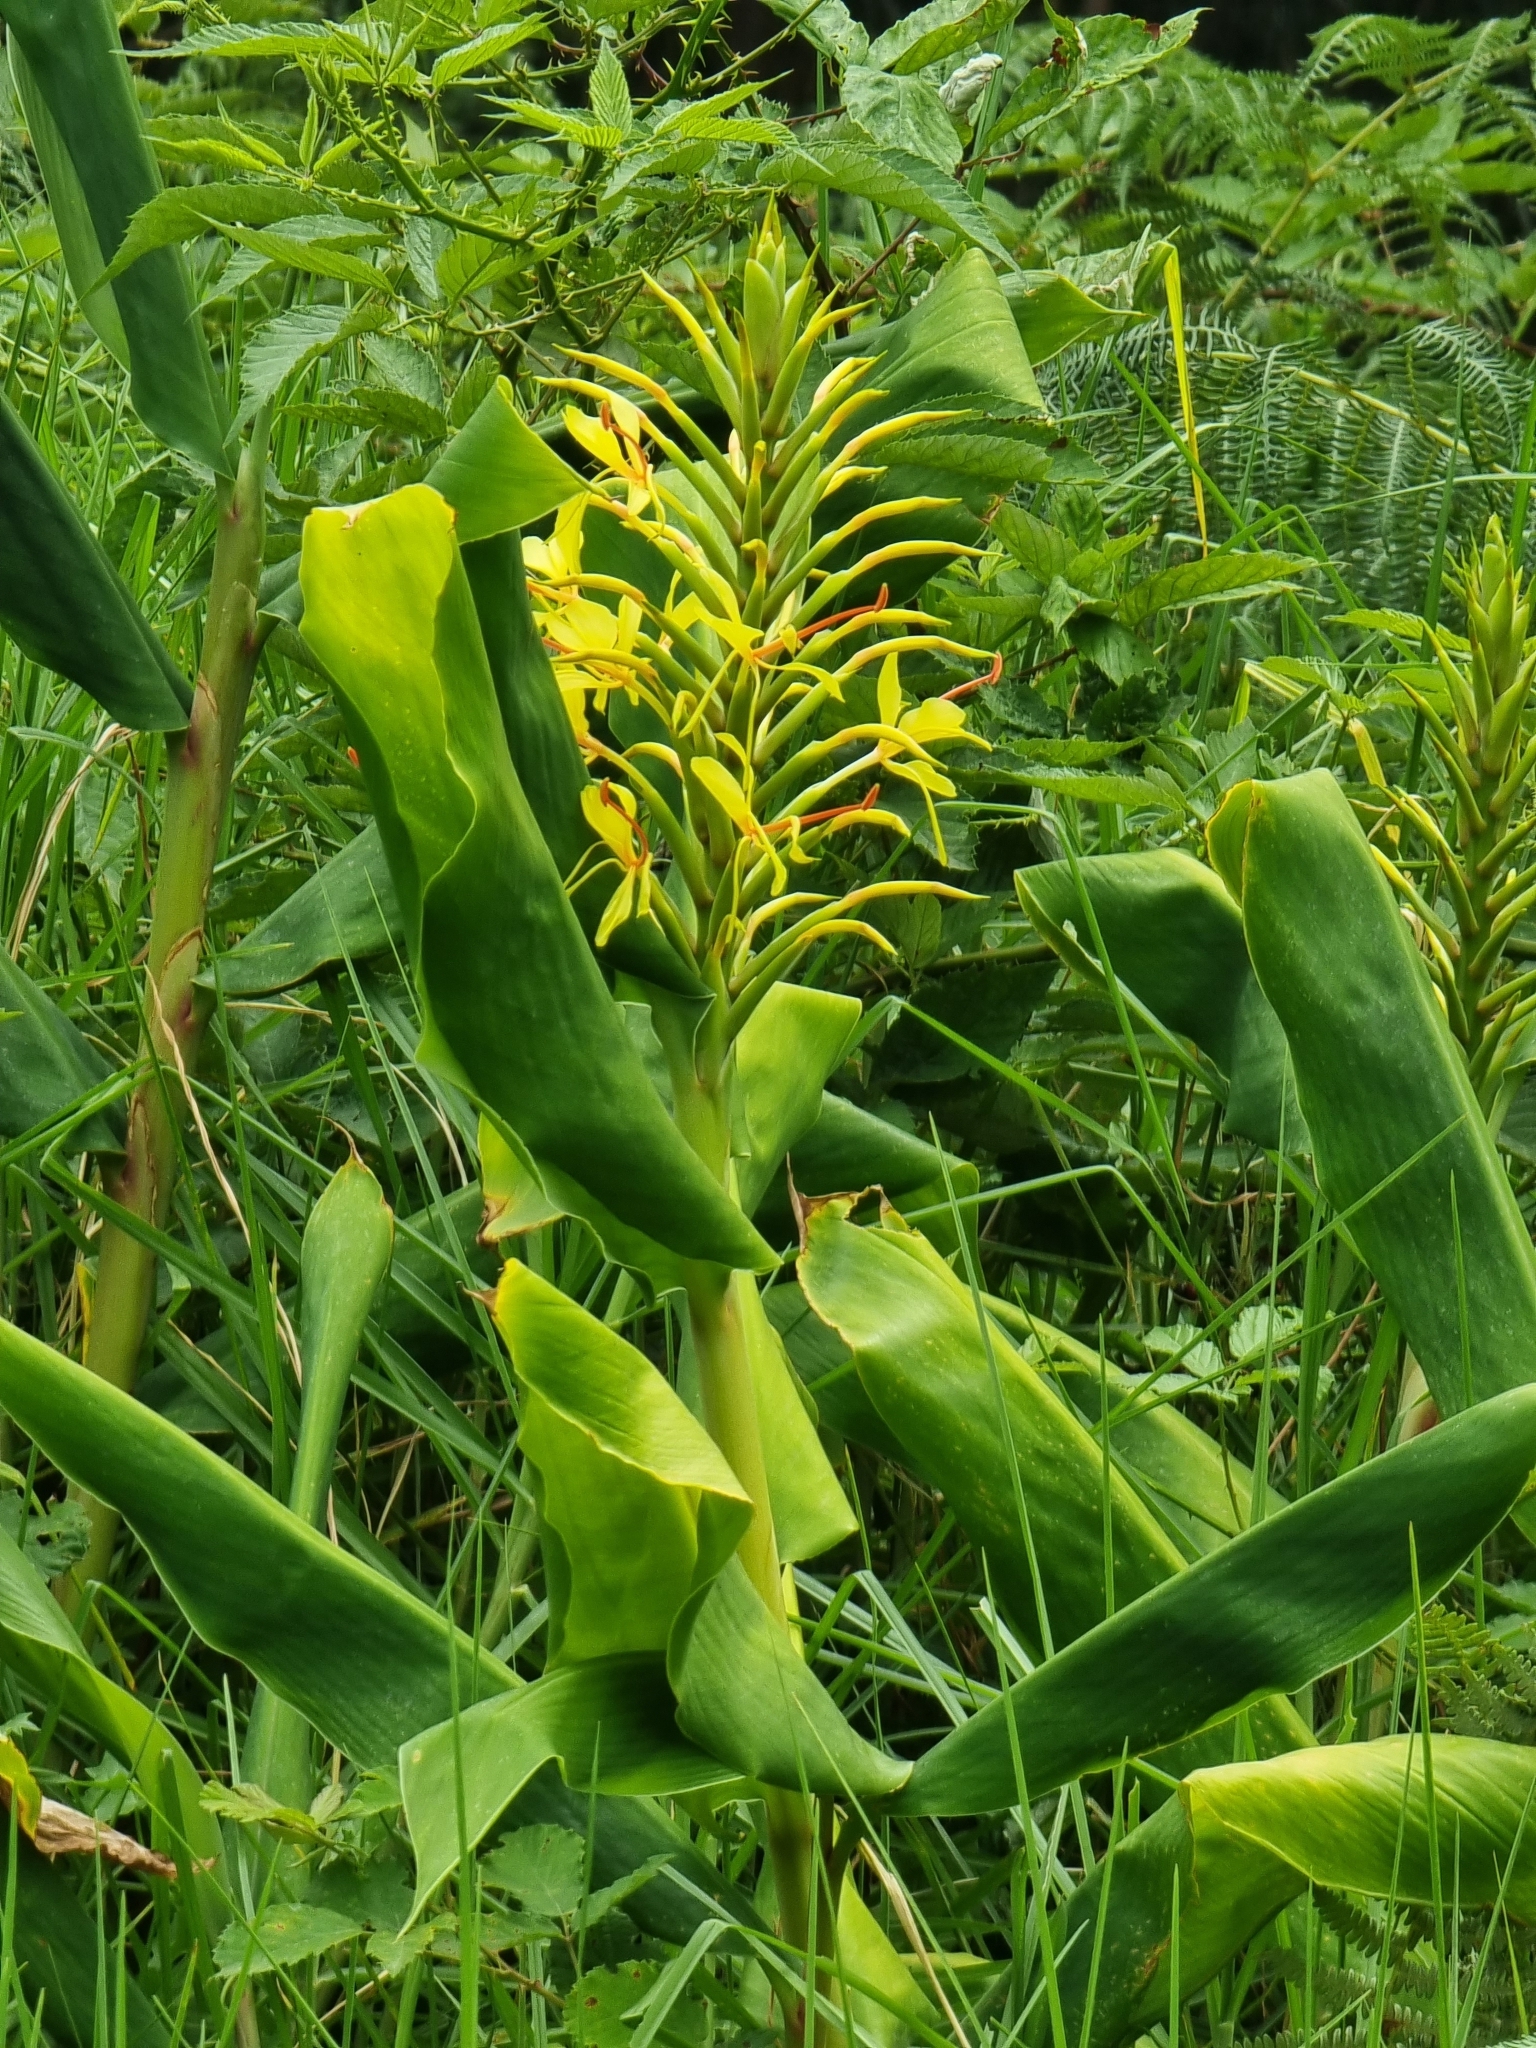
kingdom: Plantae
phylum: Tracheophyta
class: Liliopsida
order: Zingiberales
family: Zingiberaceae
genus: Hedychium
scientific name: Hedychium gardnerianum
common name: Himalayan ginger
